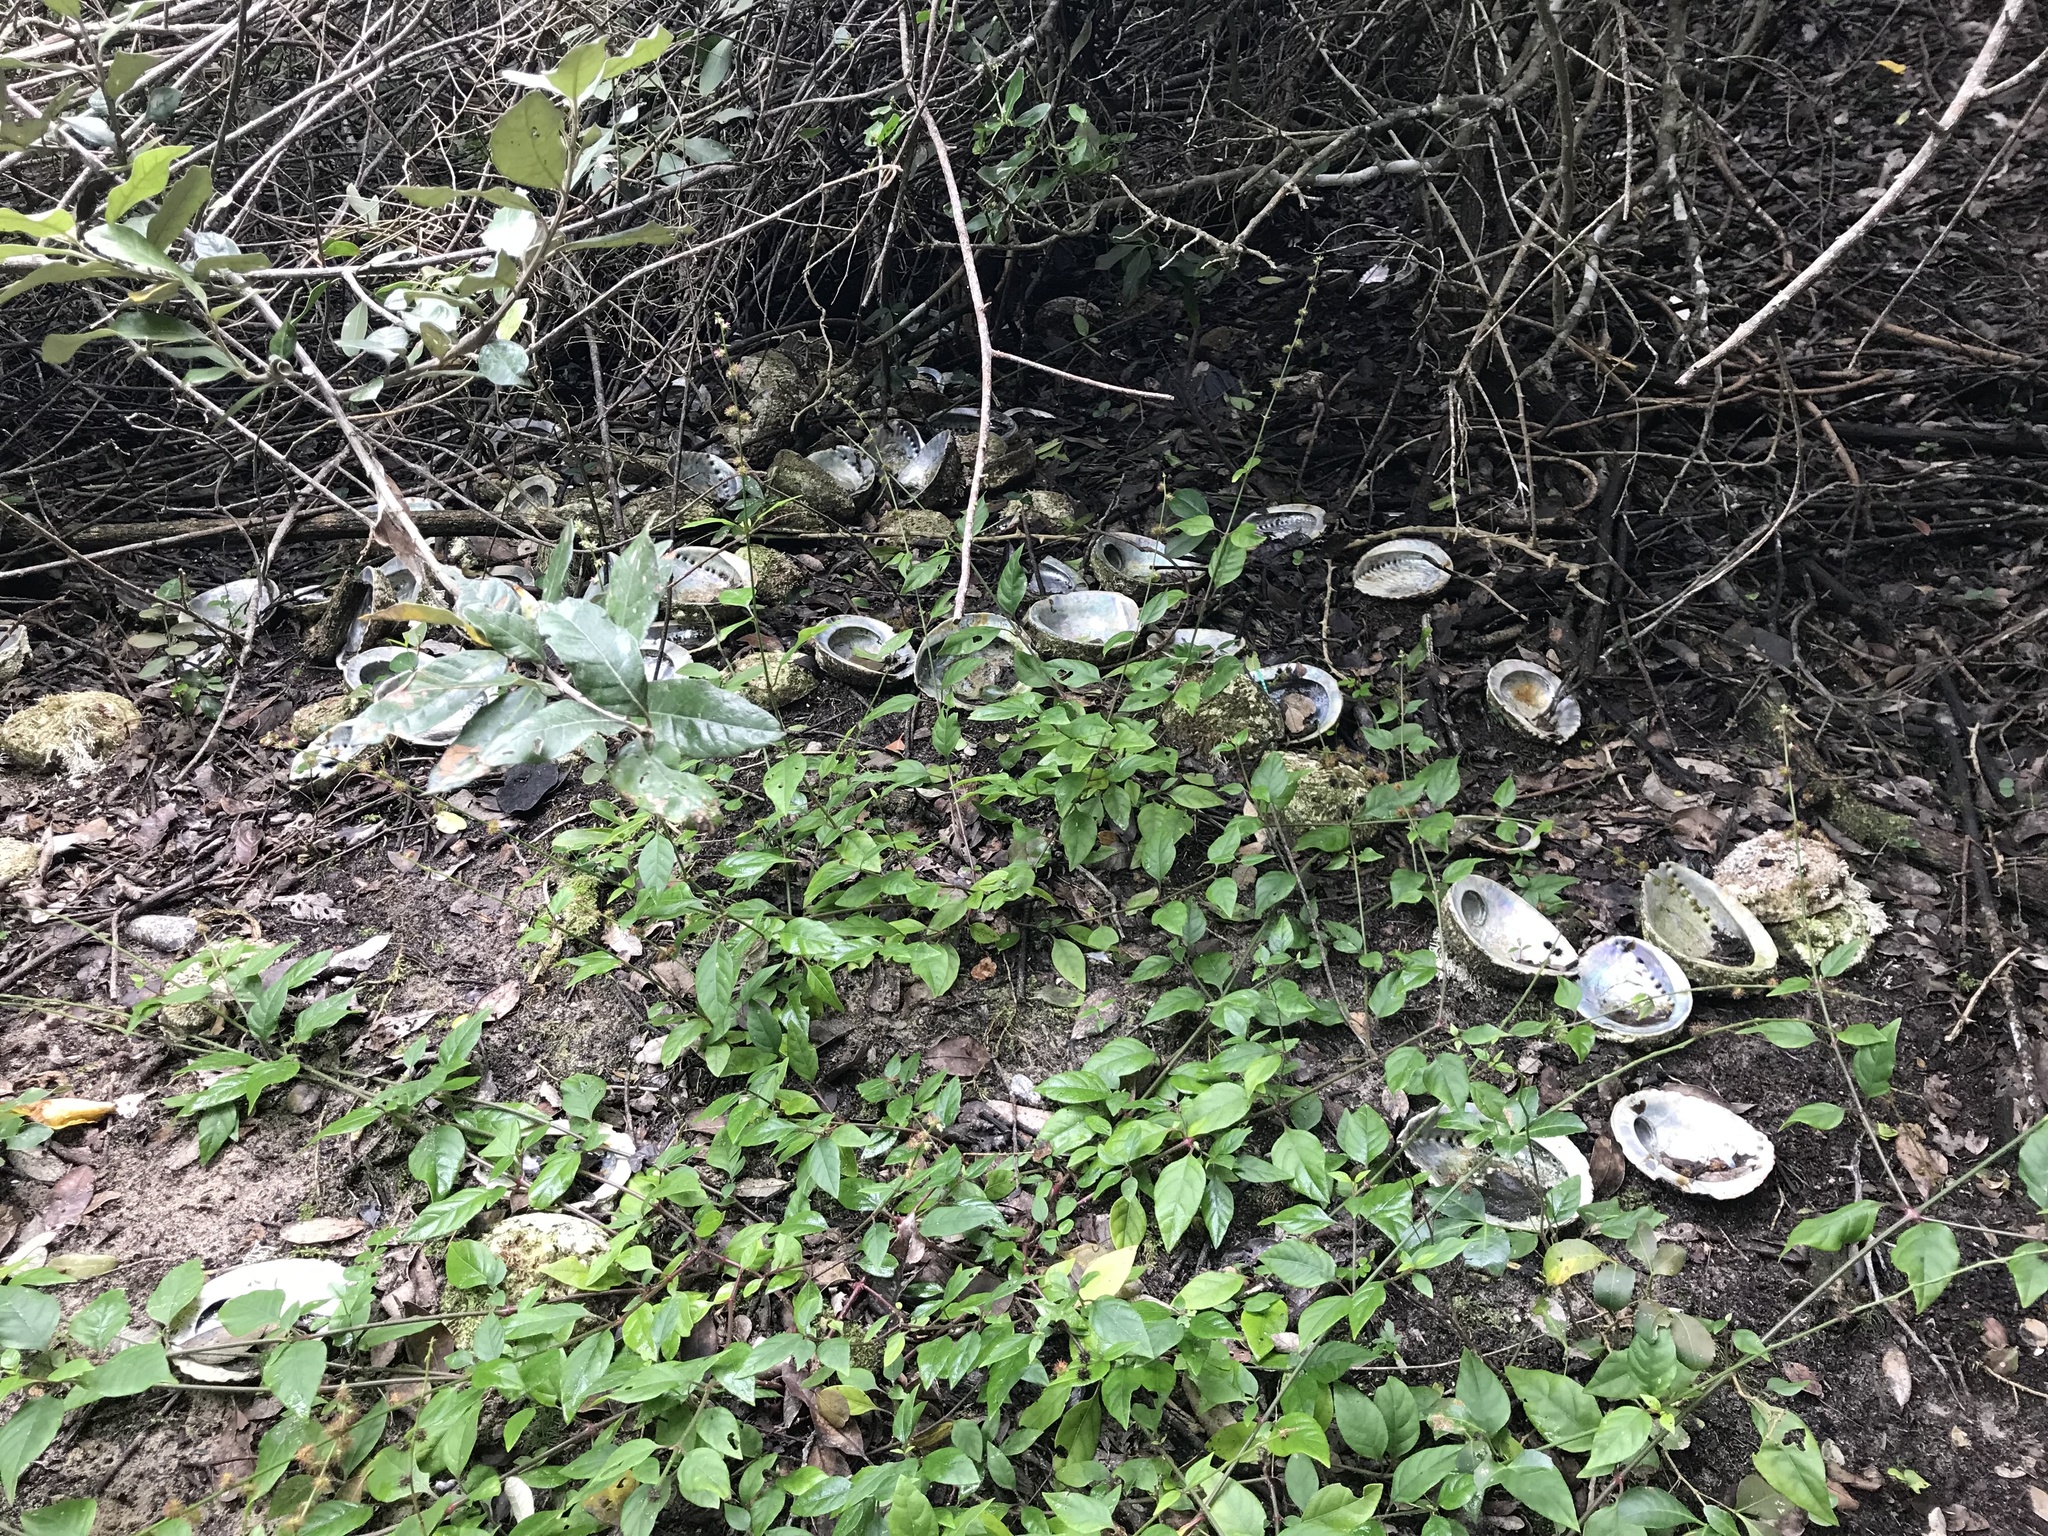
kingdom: Animalia
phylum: Mollusca
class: Gastropoda
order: Lepetellida
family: Haliotidae
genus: Haliotis
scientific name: Haliotis midae
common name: Perlemoen
